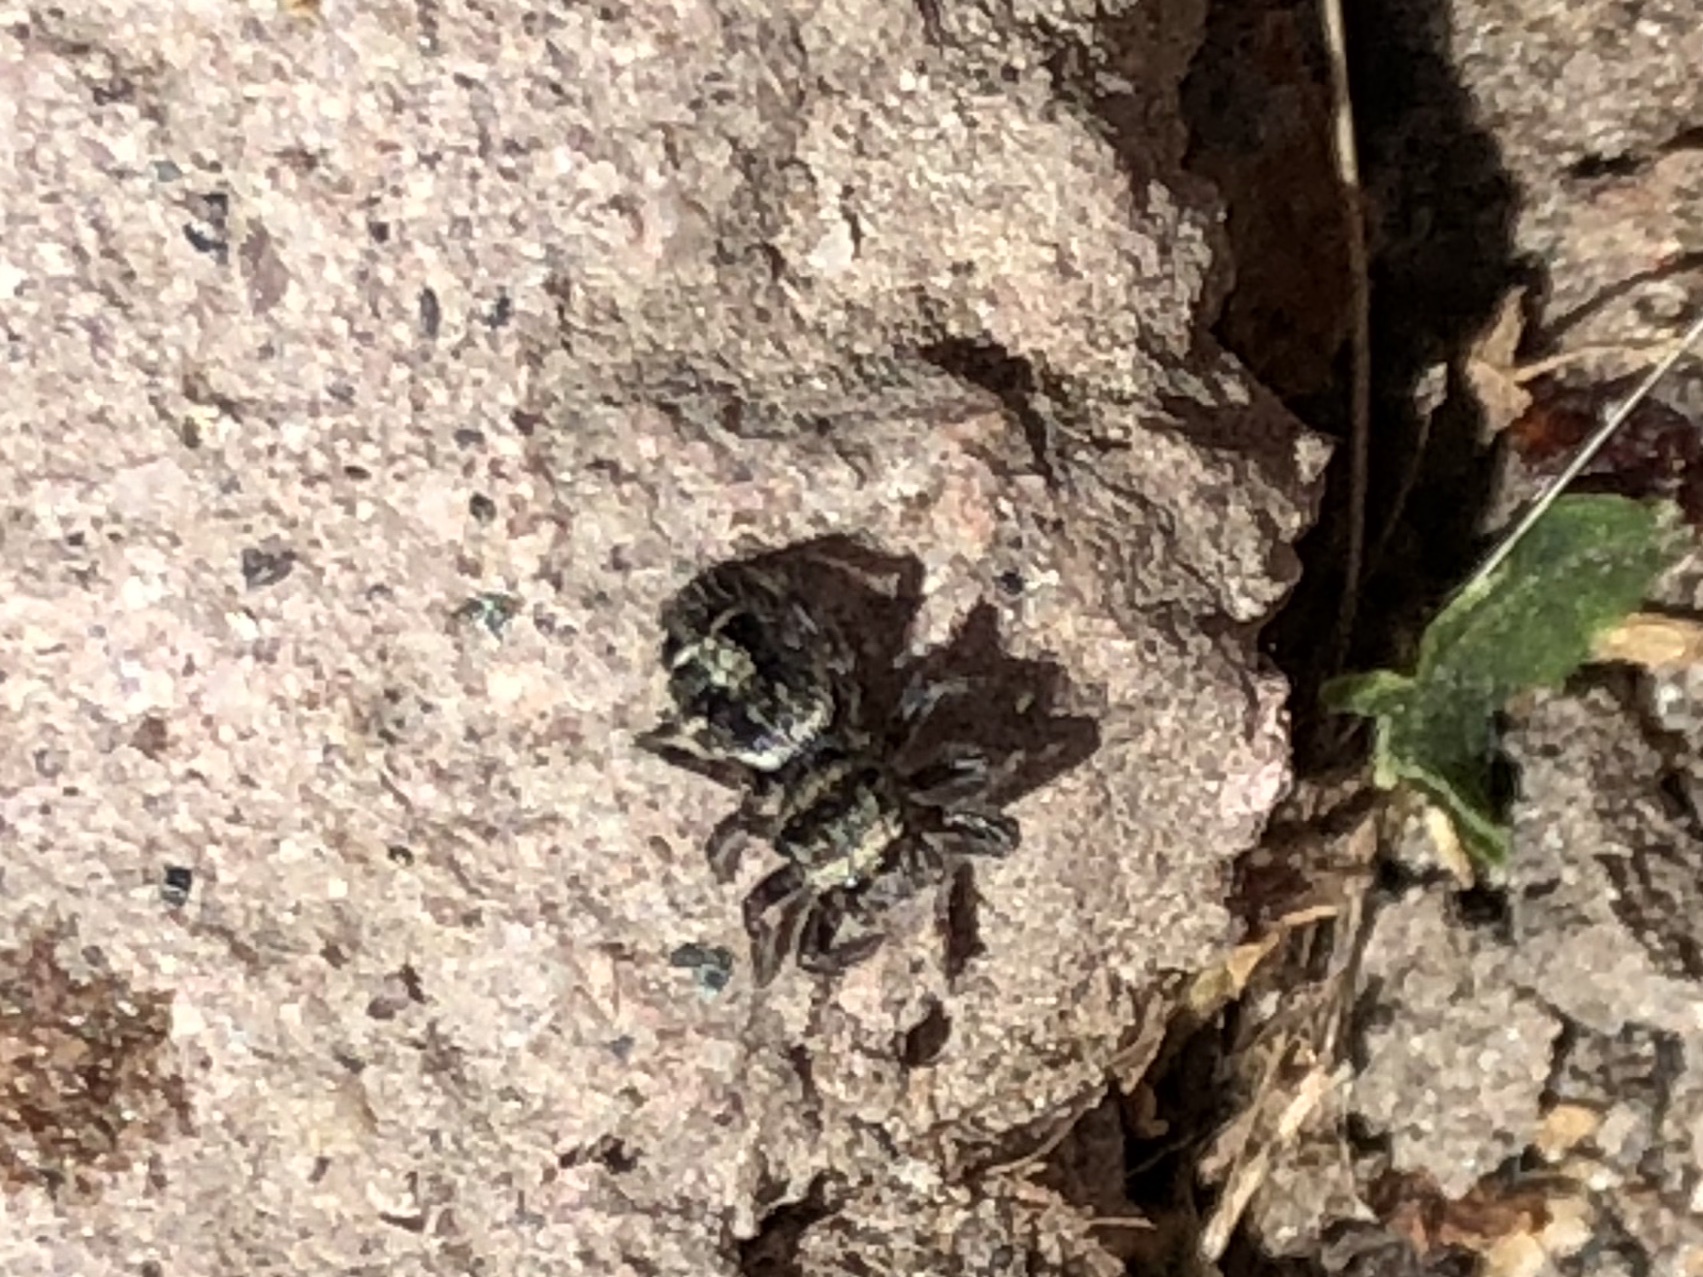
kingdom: Animalia
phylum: Arthropoda
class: Arachnida
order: Araneae
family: Salticidae
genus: Phidippus
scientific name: Phidippus audax
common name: Bold jumper
